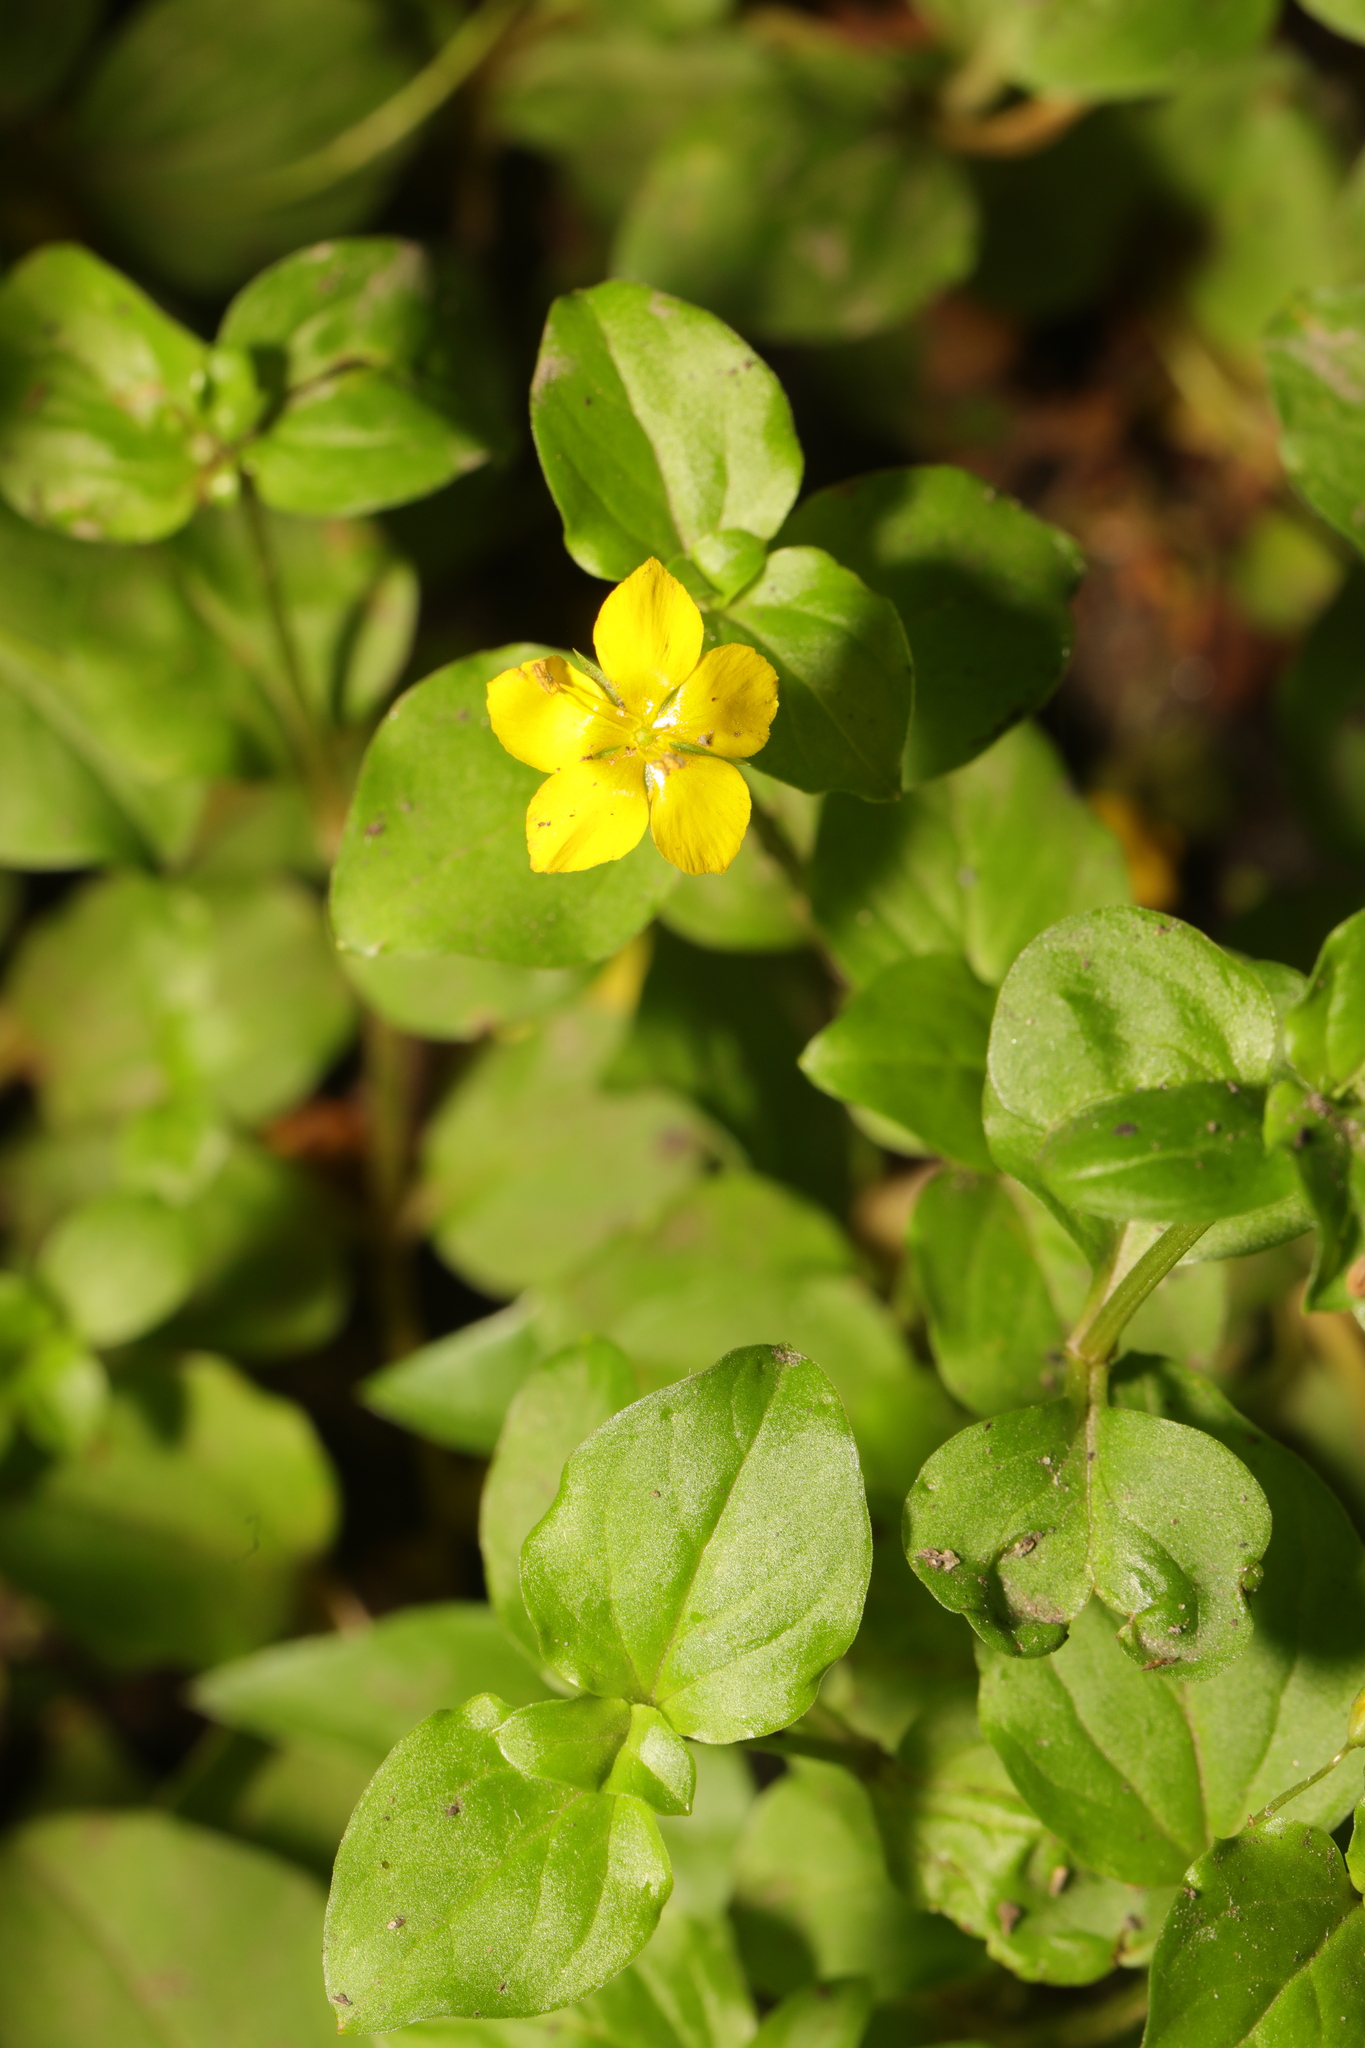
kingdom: Plantae
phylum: Tracheophyta
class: Magnoliopsida
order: Ericales
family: Primulaceae
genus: Lysimachia
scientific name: Lysimachia nemorum
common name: Yellow pimpernel
